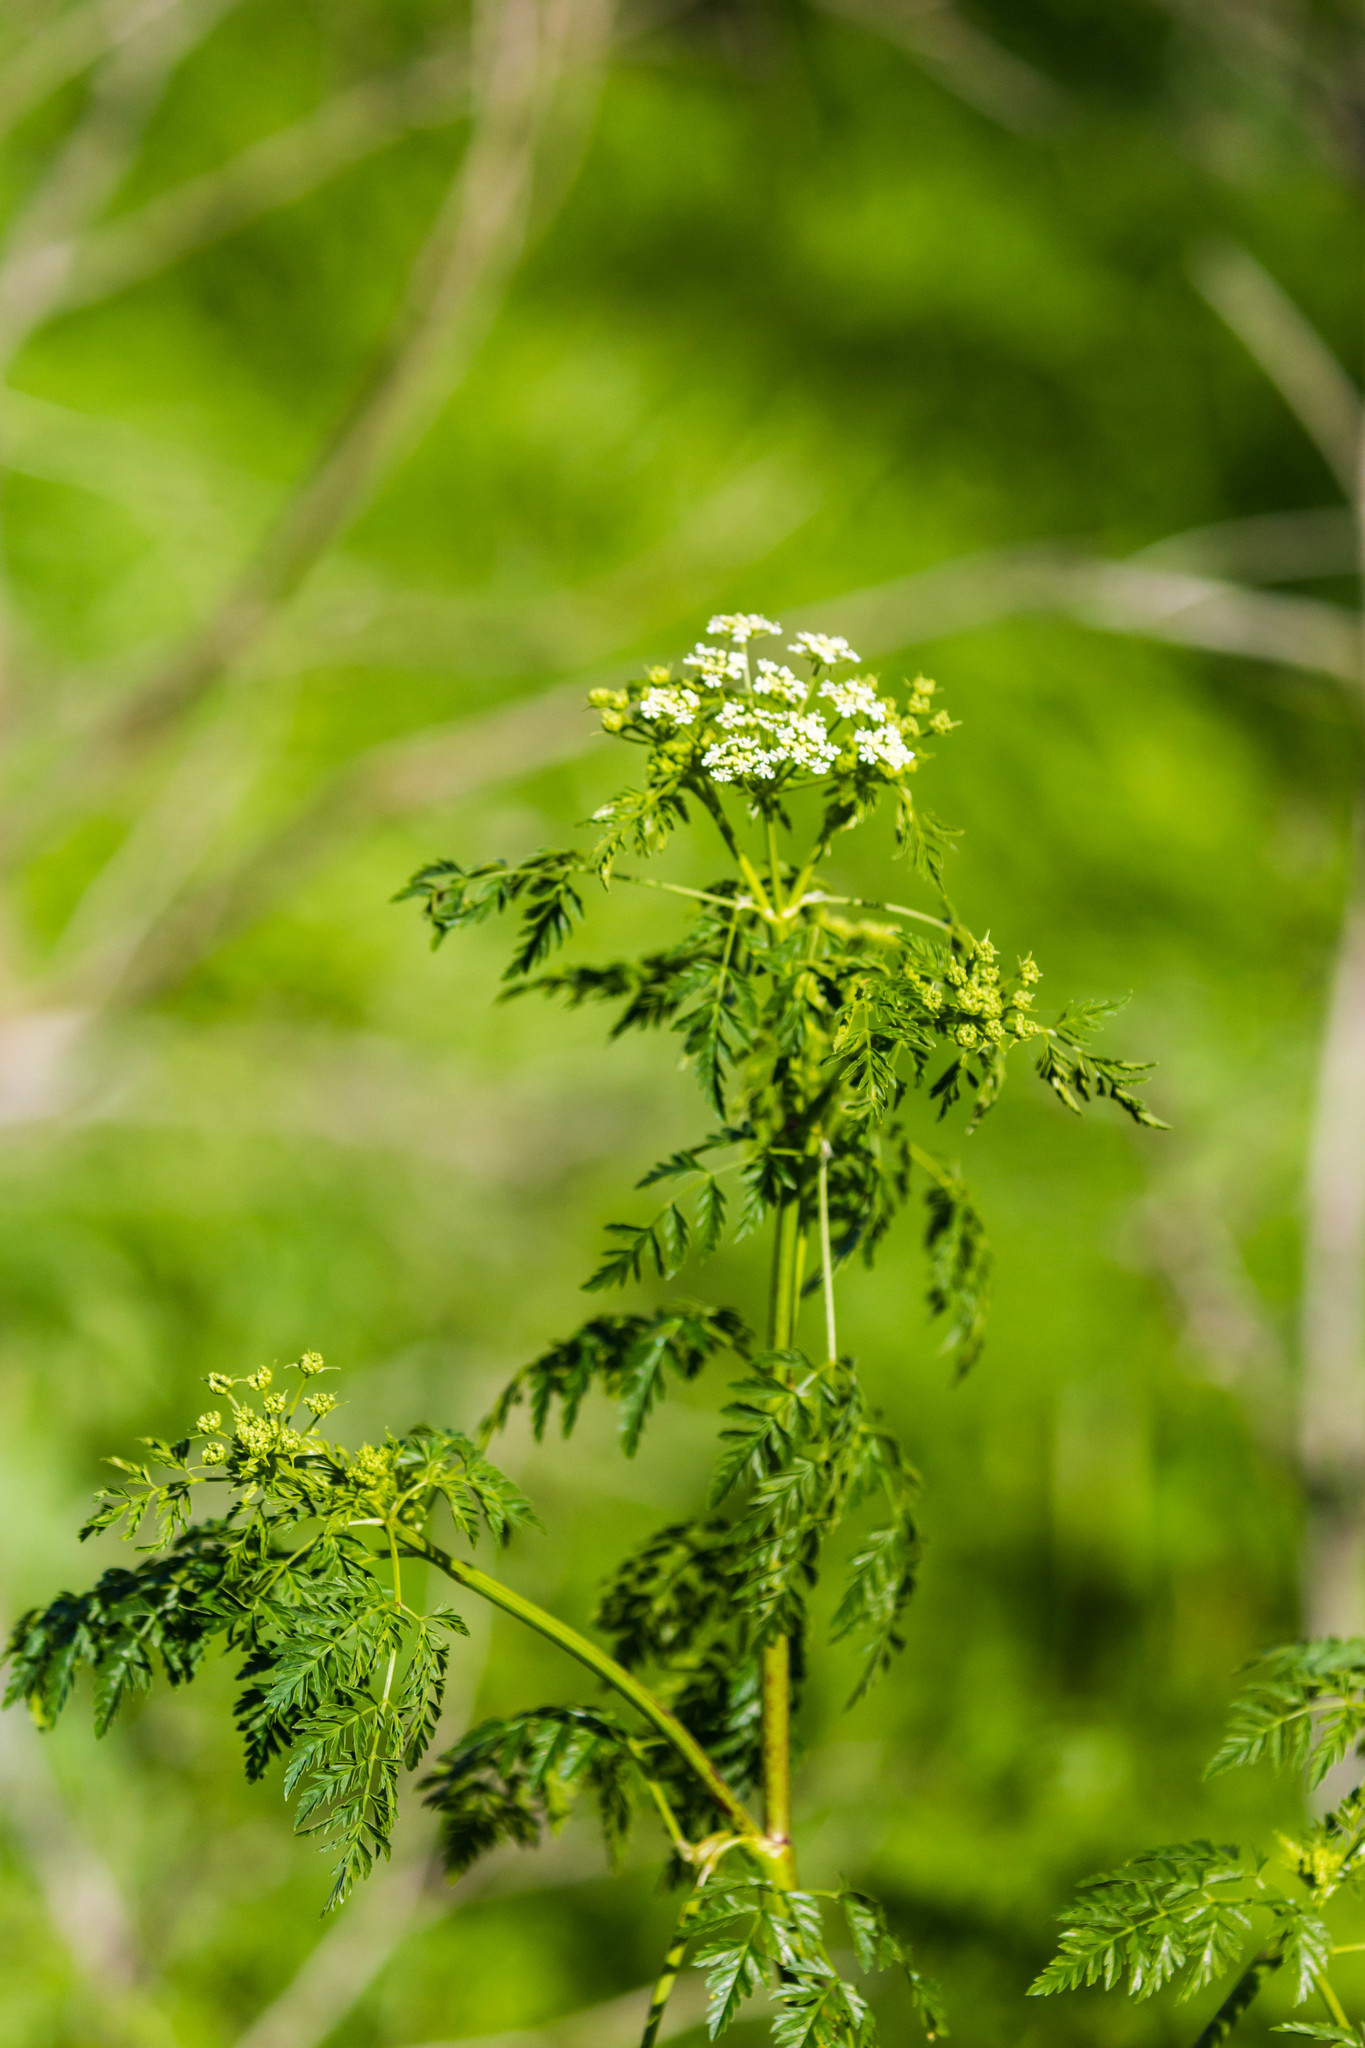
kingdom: Plantae
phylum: Tracheophyta
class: Magnoliopsida
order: Apiales
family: Apiaceae
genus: Conium
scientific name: Conium maculatum
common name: Hemlock
